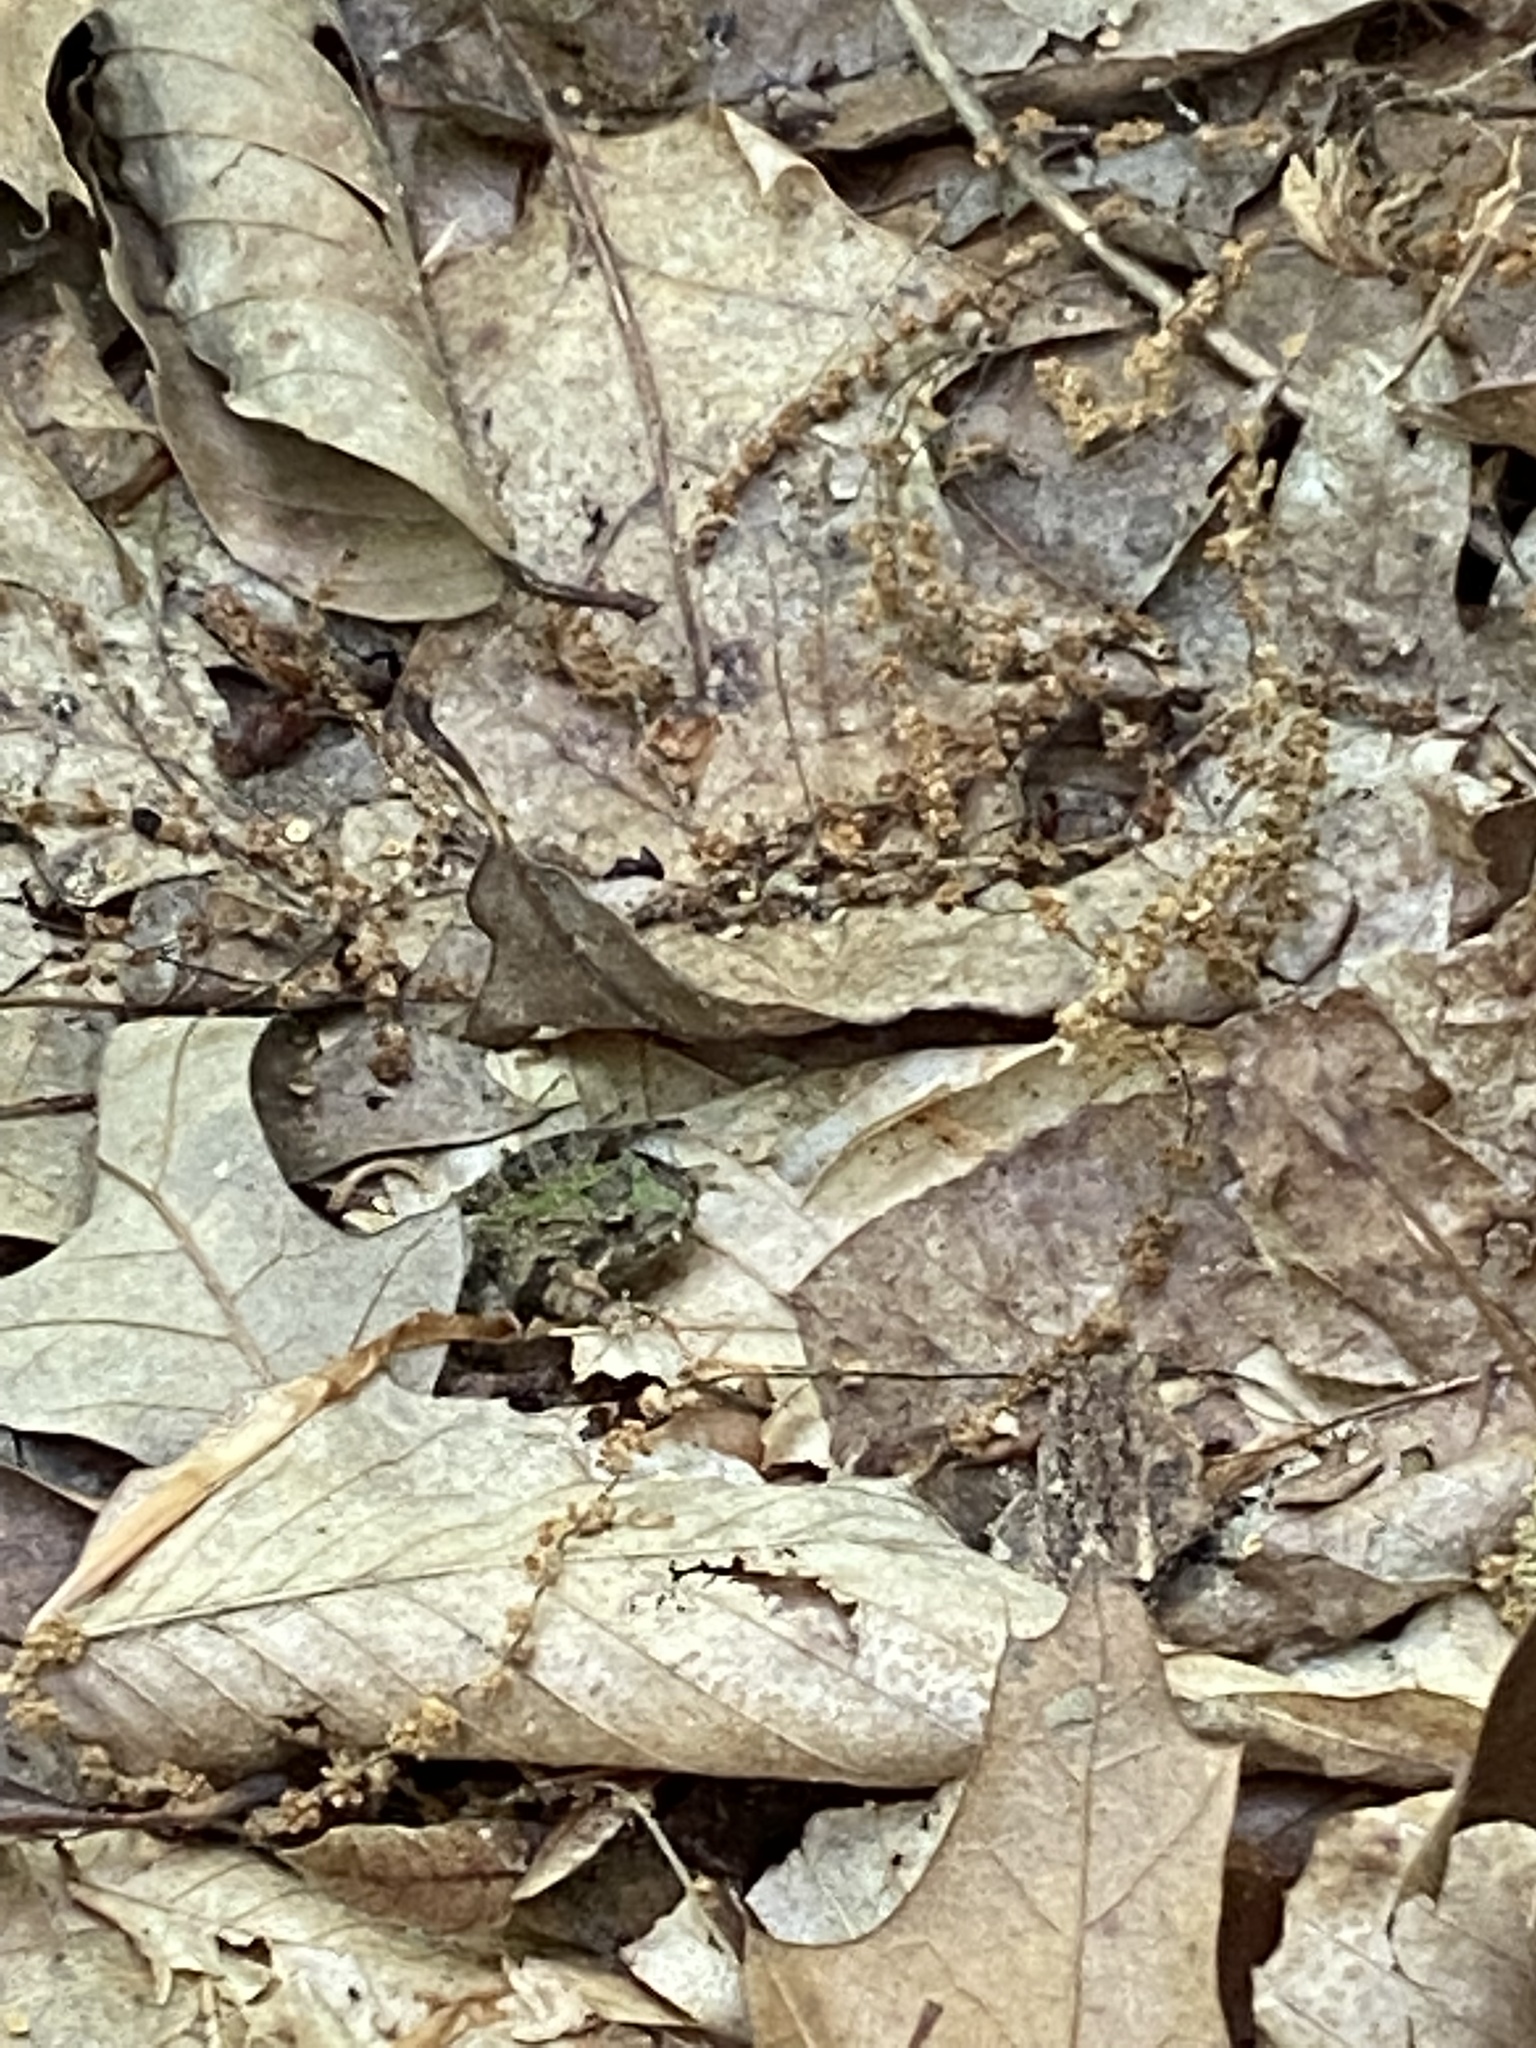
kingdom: Animalia
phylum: Chordata
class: Amphibia
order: Anura
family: Hylidae
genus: Acris
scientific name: Acris crepitans
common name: Northern cricket frog
